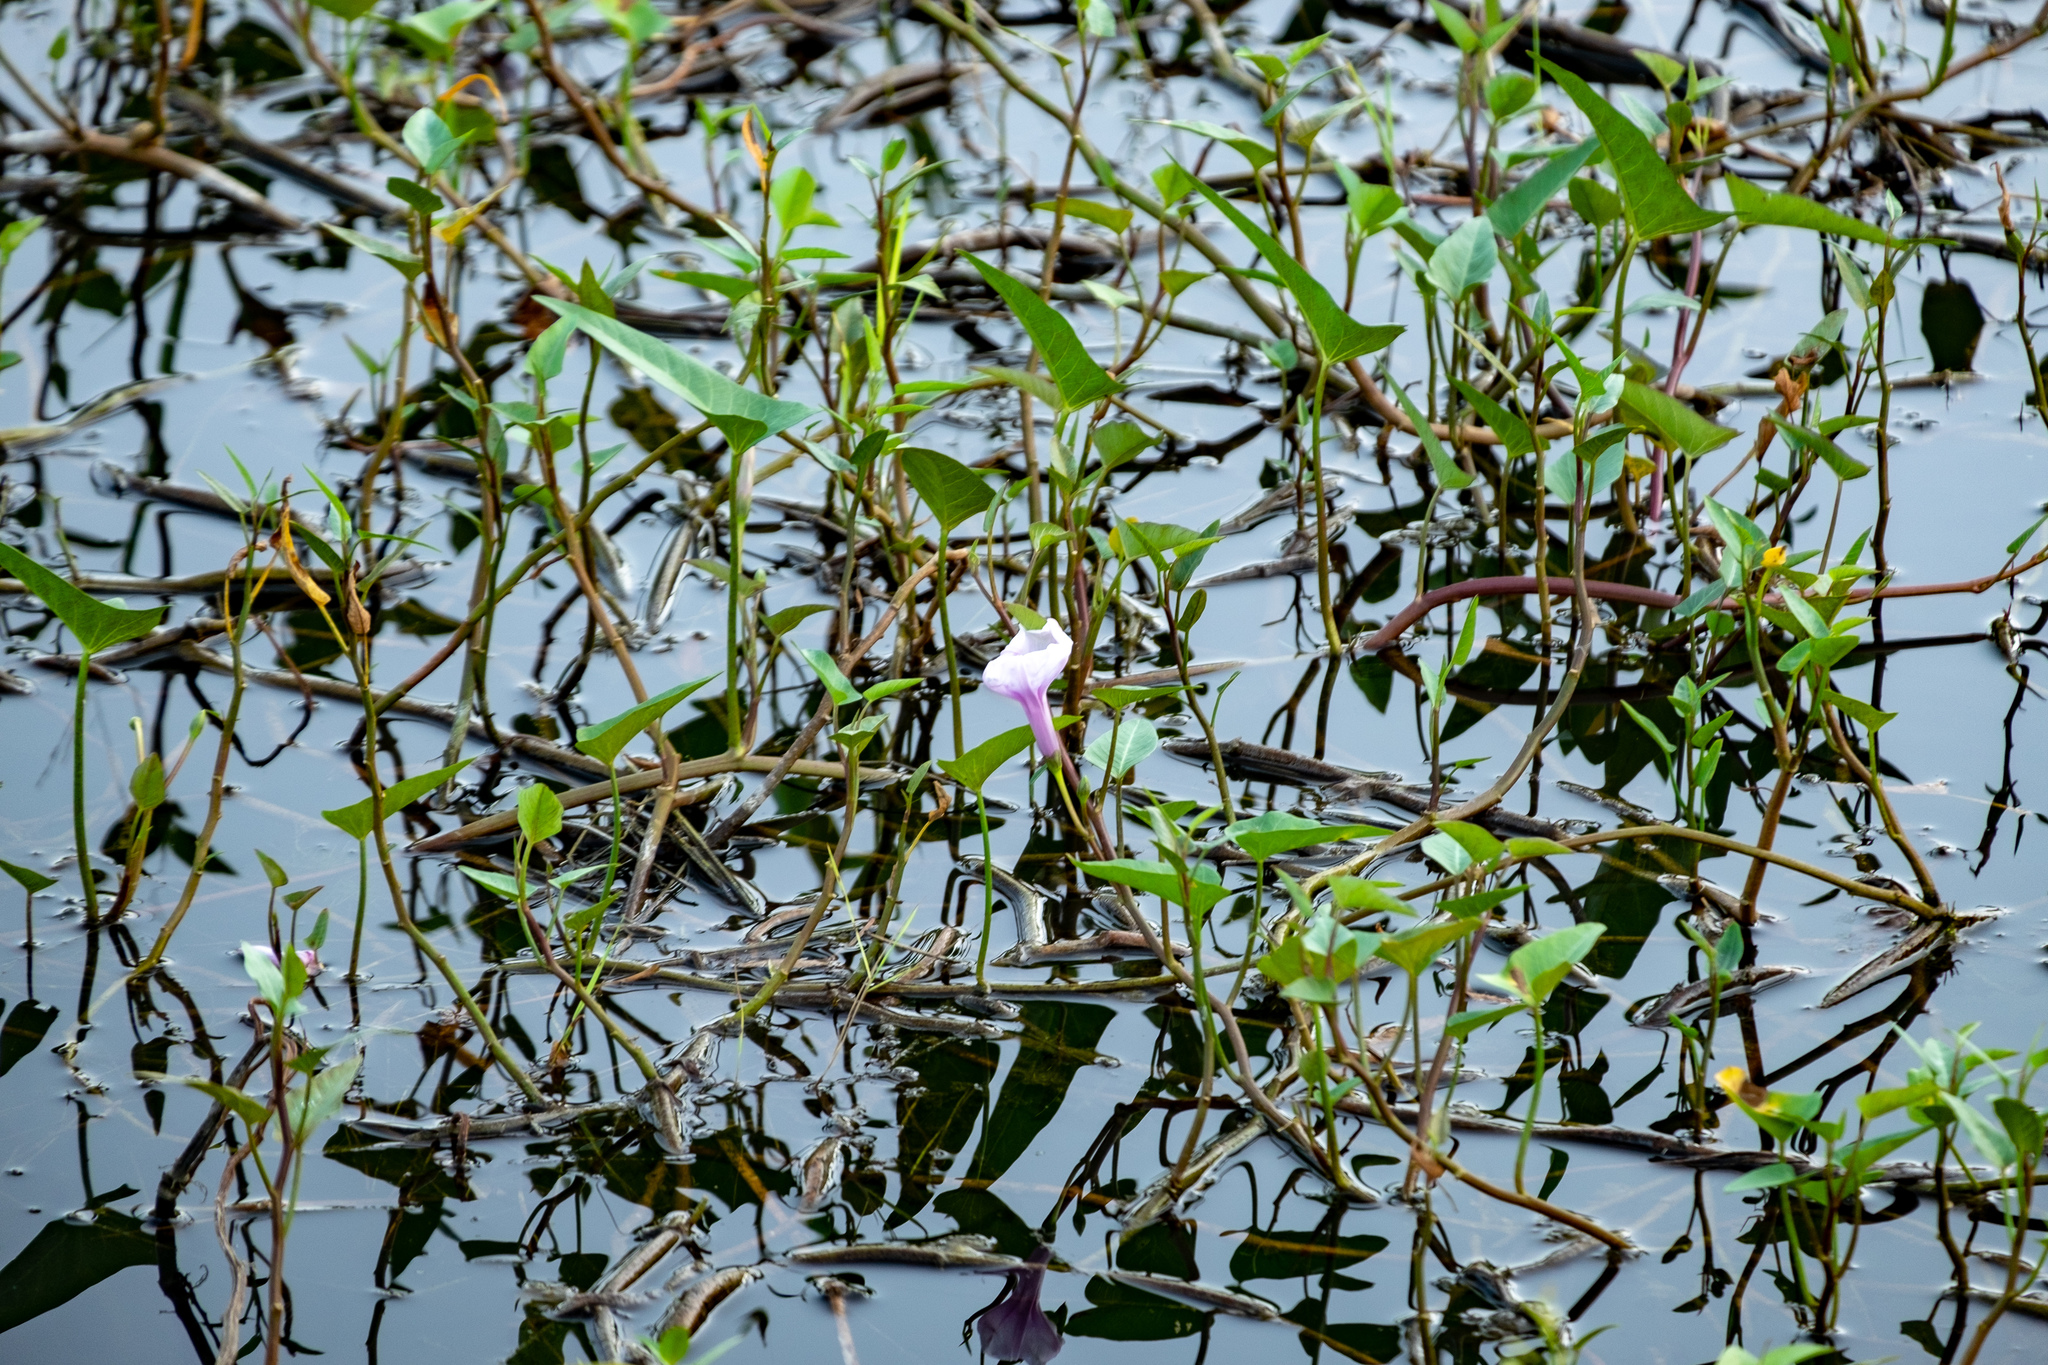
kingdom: Plantae
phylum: Tracheophyta
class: Magnoliopsida
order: Solanales
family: Convolvulaceae
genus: Ipomoea
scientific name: Ipomoea aquatica
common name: Swamp morning-glory
